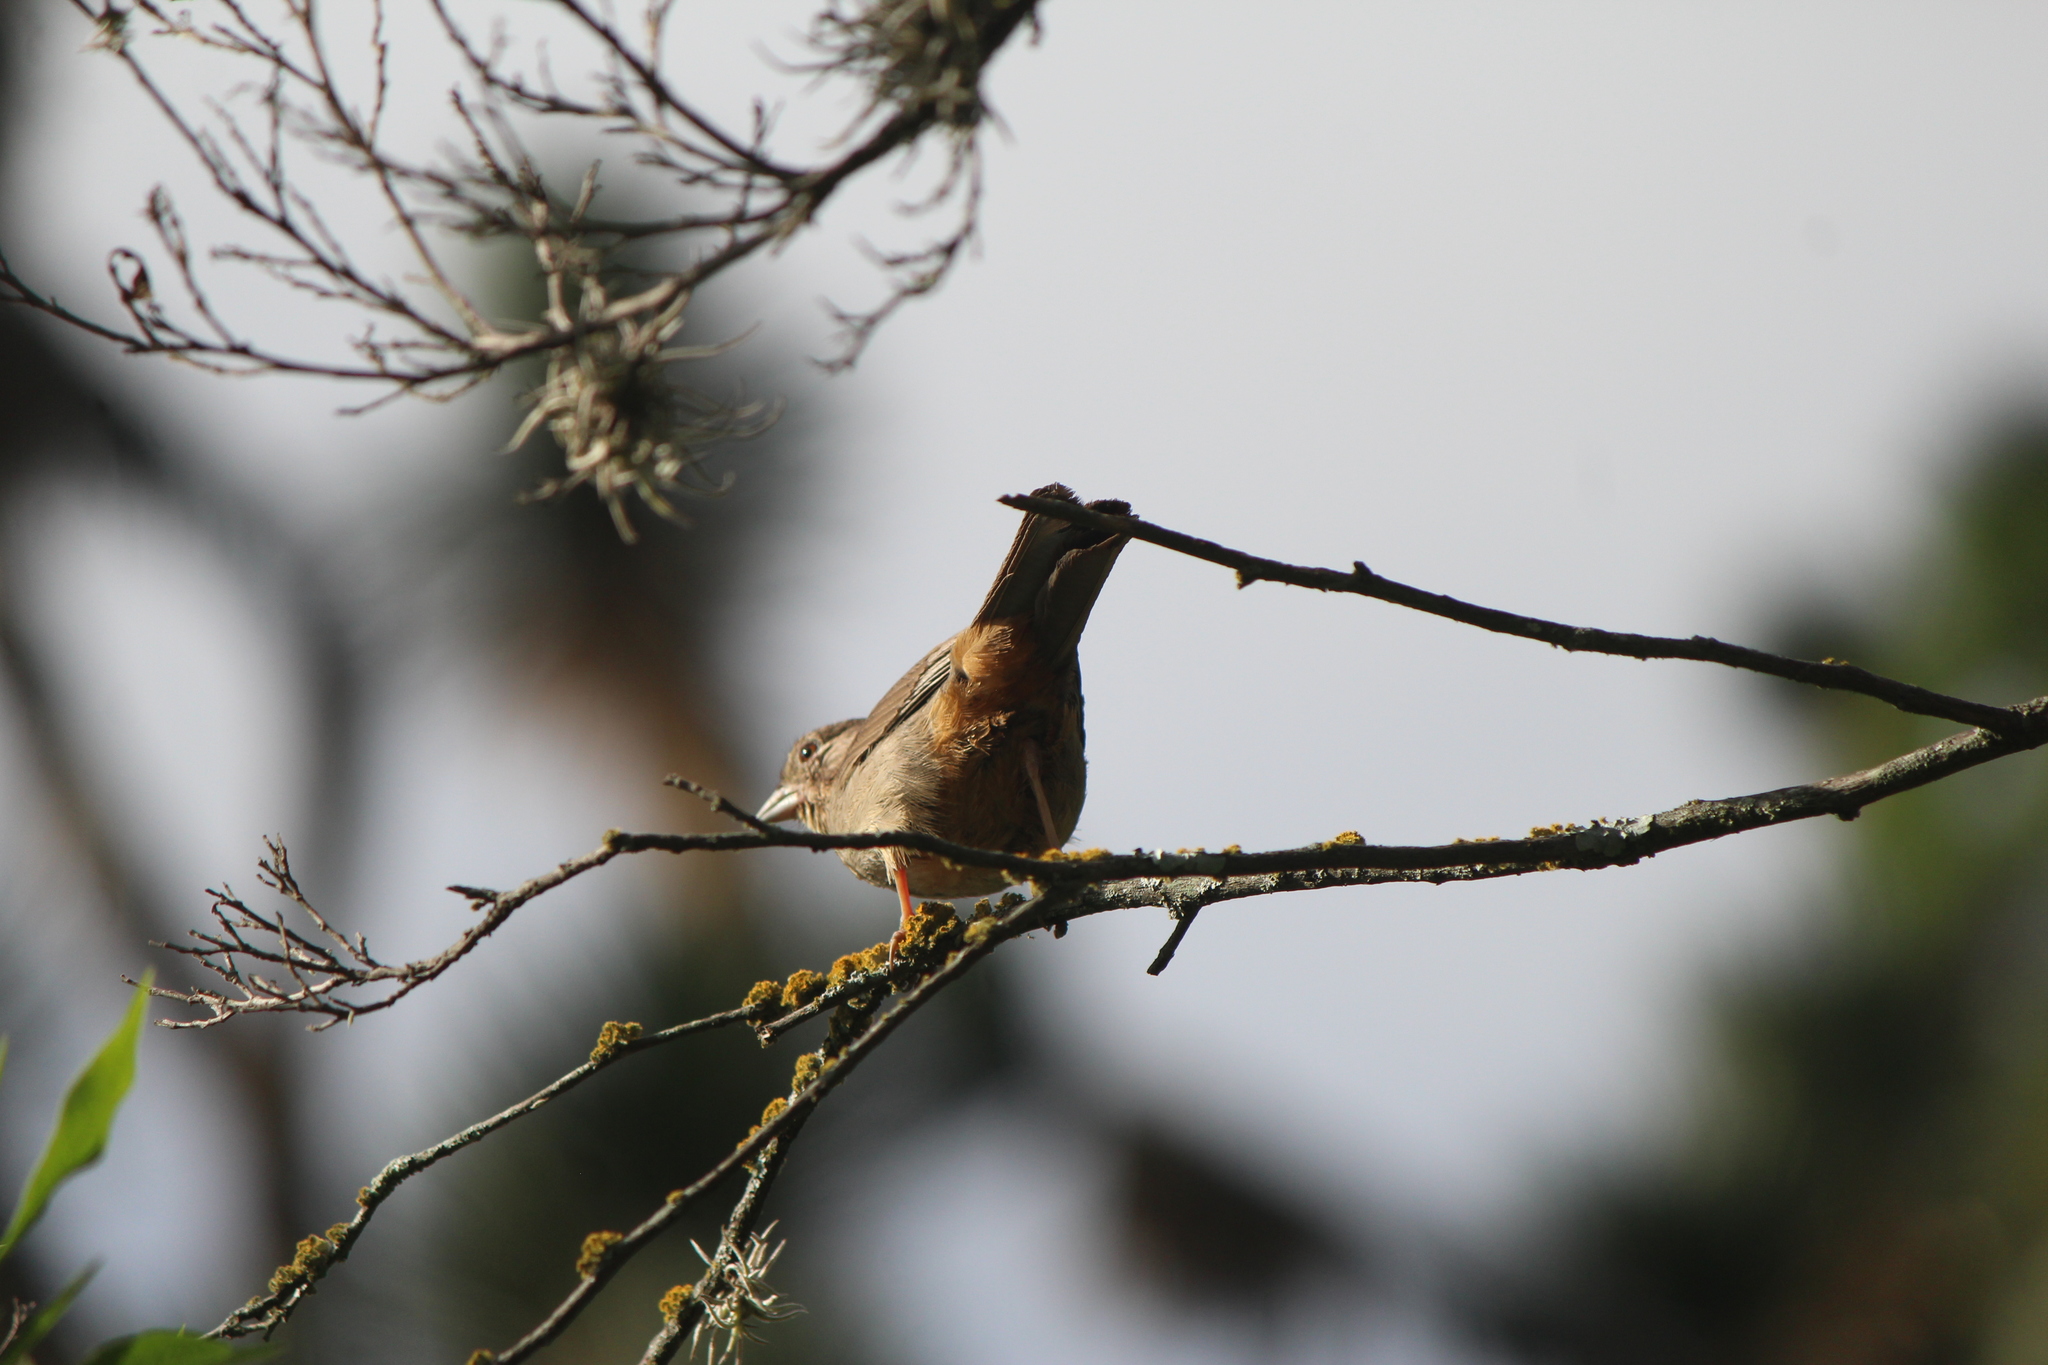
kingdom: Animalia
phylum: Chordata
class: Aves
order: Passeriformes
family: Passerellidae
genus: Melozone
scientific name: Melozone fusca
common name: Canyon towhee
